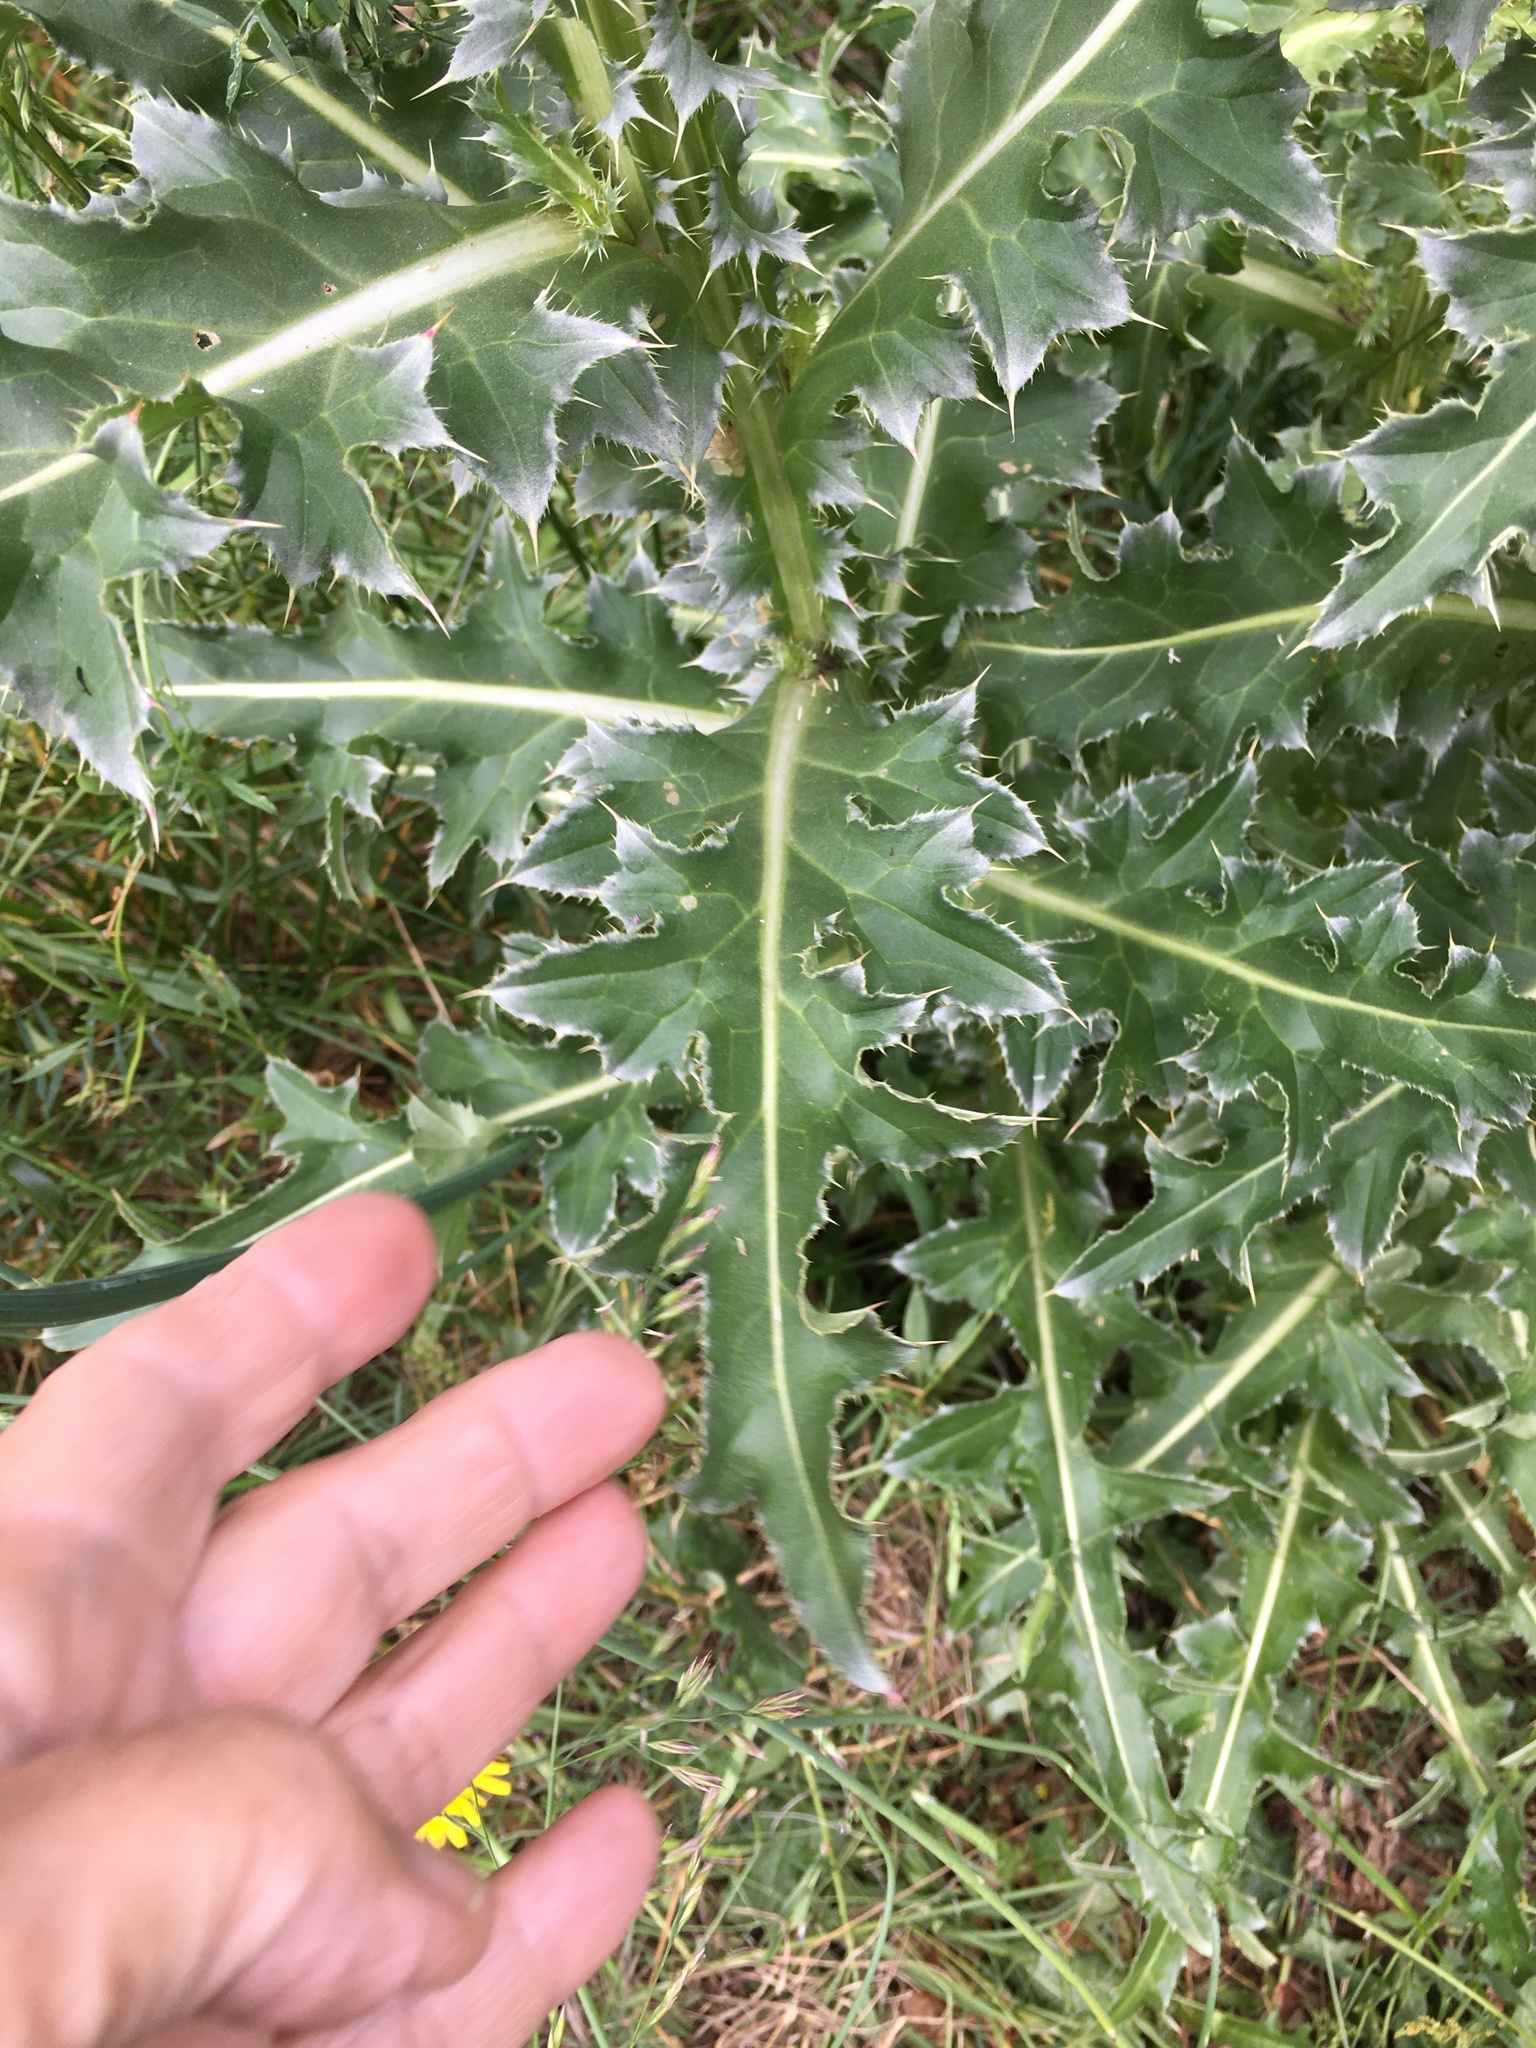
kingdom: Plantae
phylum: Tracheophyta
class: Magnoliopsida
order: Asterales
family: Asteraceae
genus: Carduus
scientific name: Carduus nutans
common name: Musk thistle
